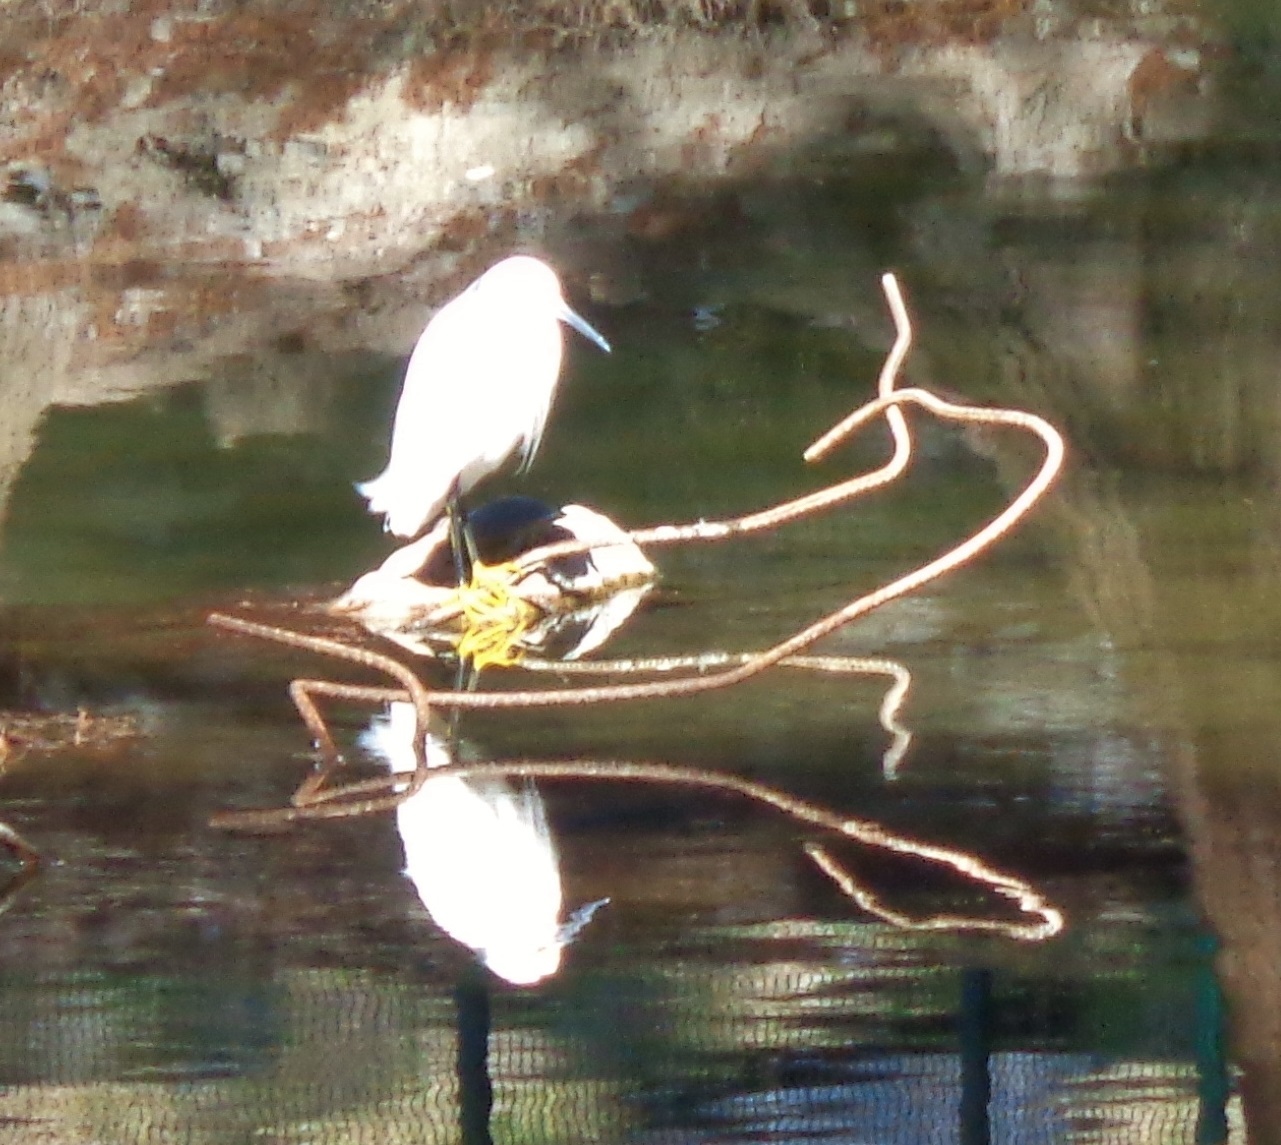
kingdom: Animalia
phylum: Chordata
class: Aves
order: Pelecaniformes
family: Ardeidae
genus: Egretta
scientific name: Egretta thula
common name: Snowy egret
